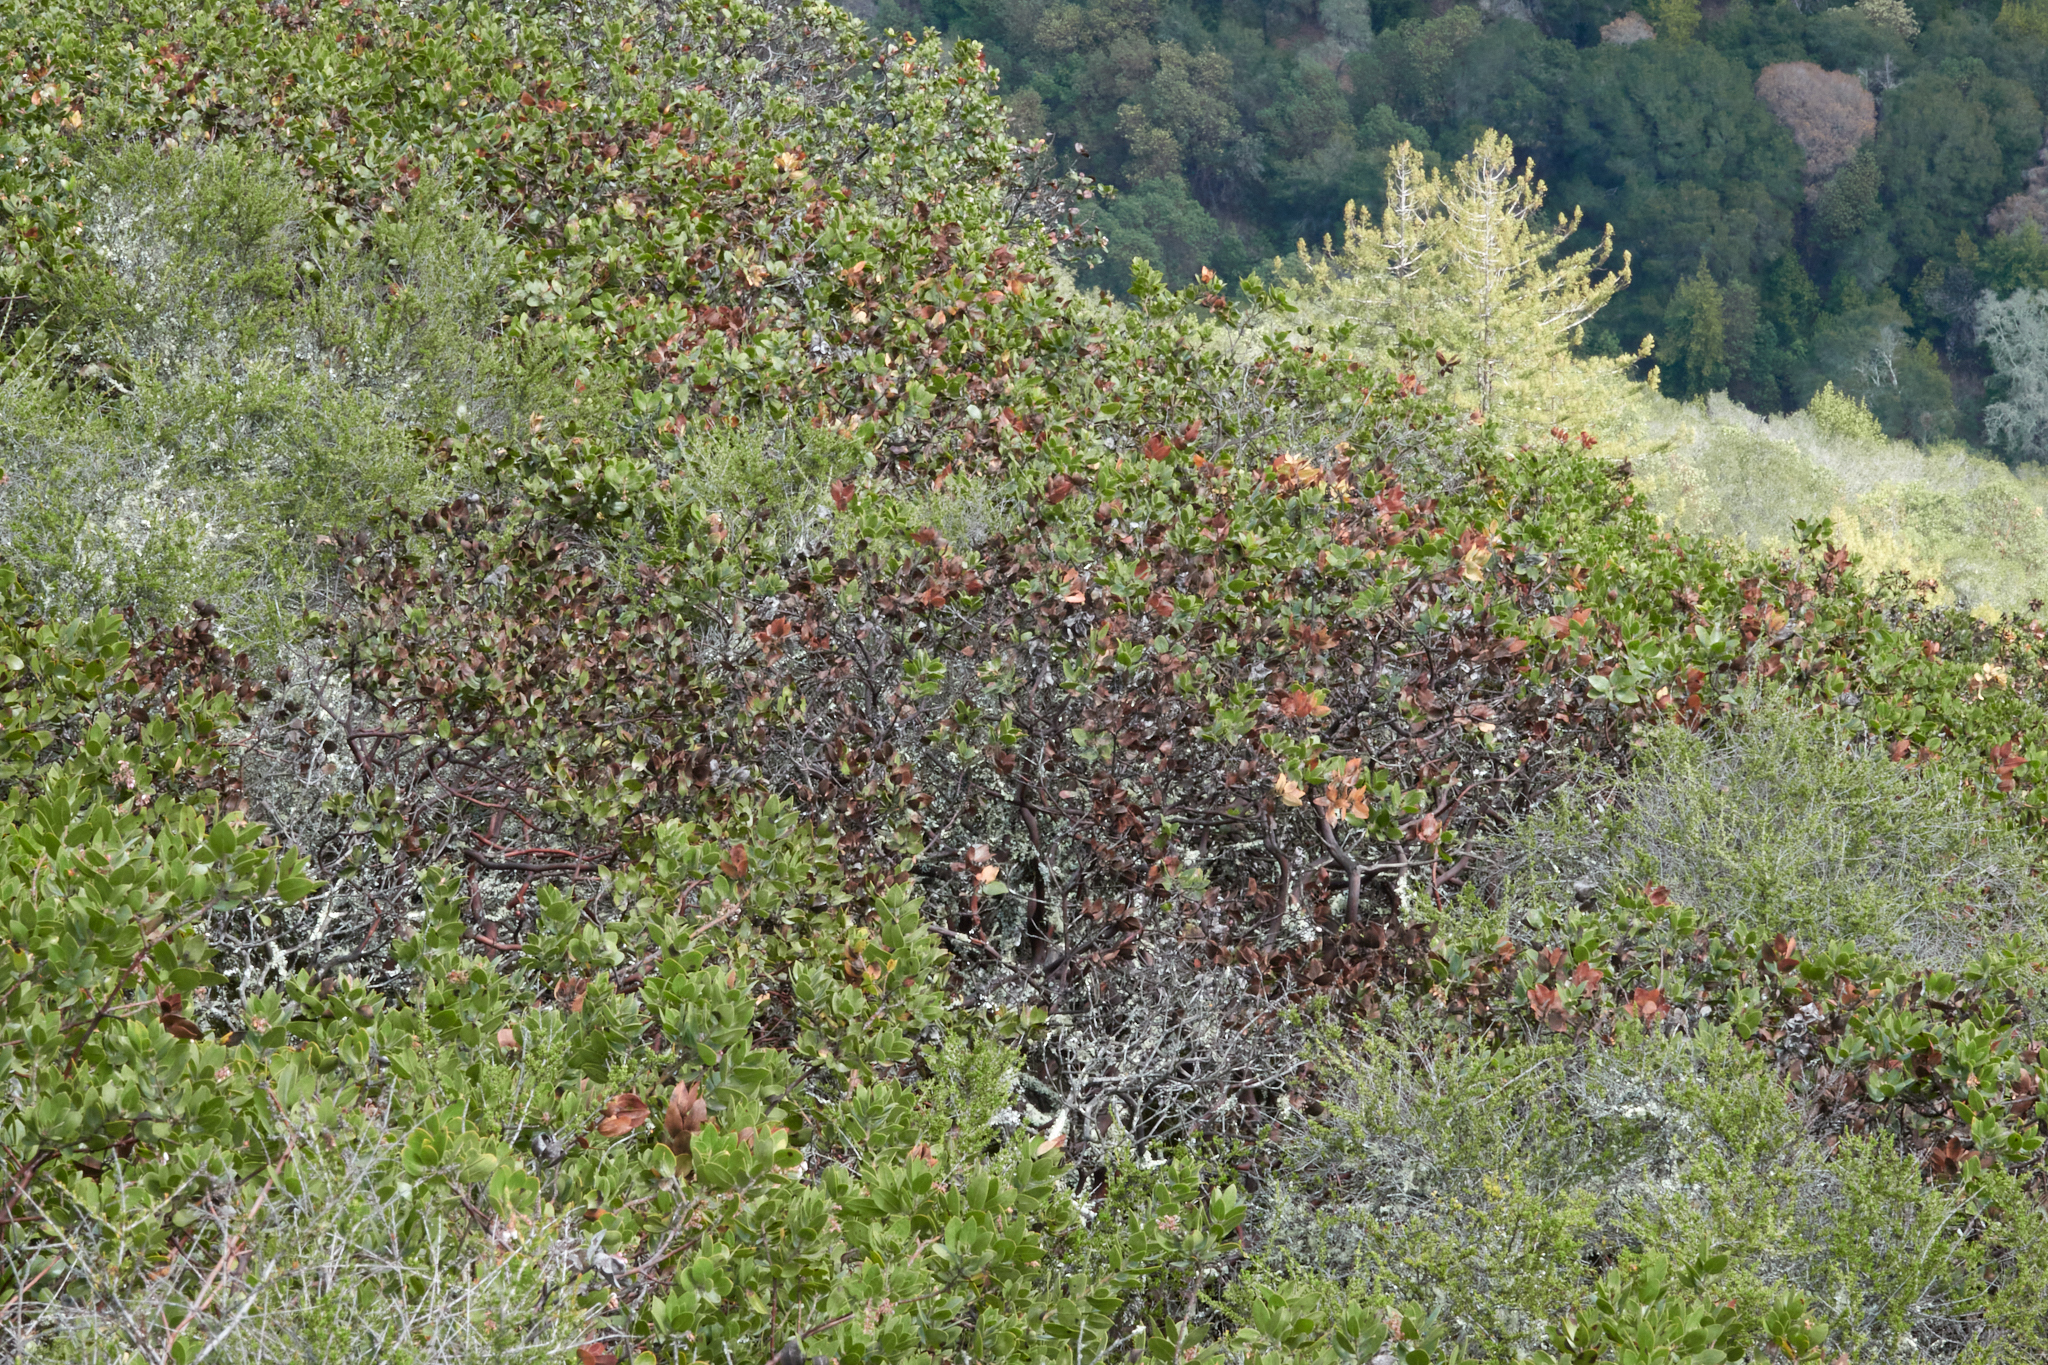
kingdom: Plantae
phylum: Tracheophyta
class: Magnoliopsida
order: Ericales
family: Ericaceae
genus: Arctostaphylos
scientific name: Arctostaphylos crustacea
